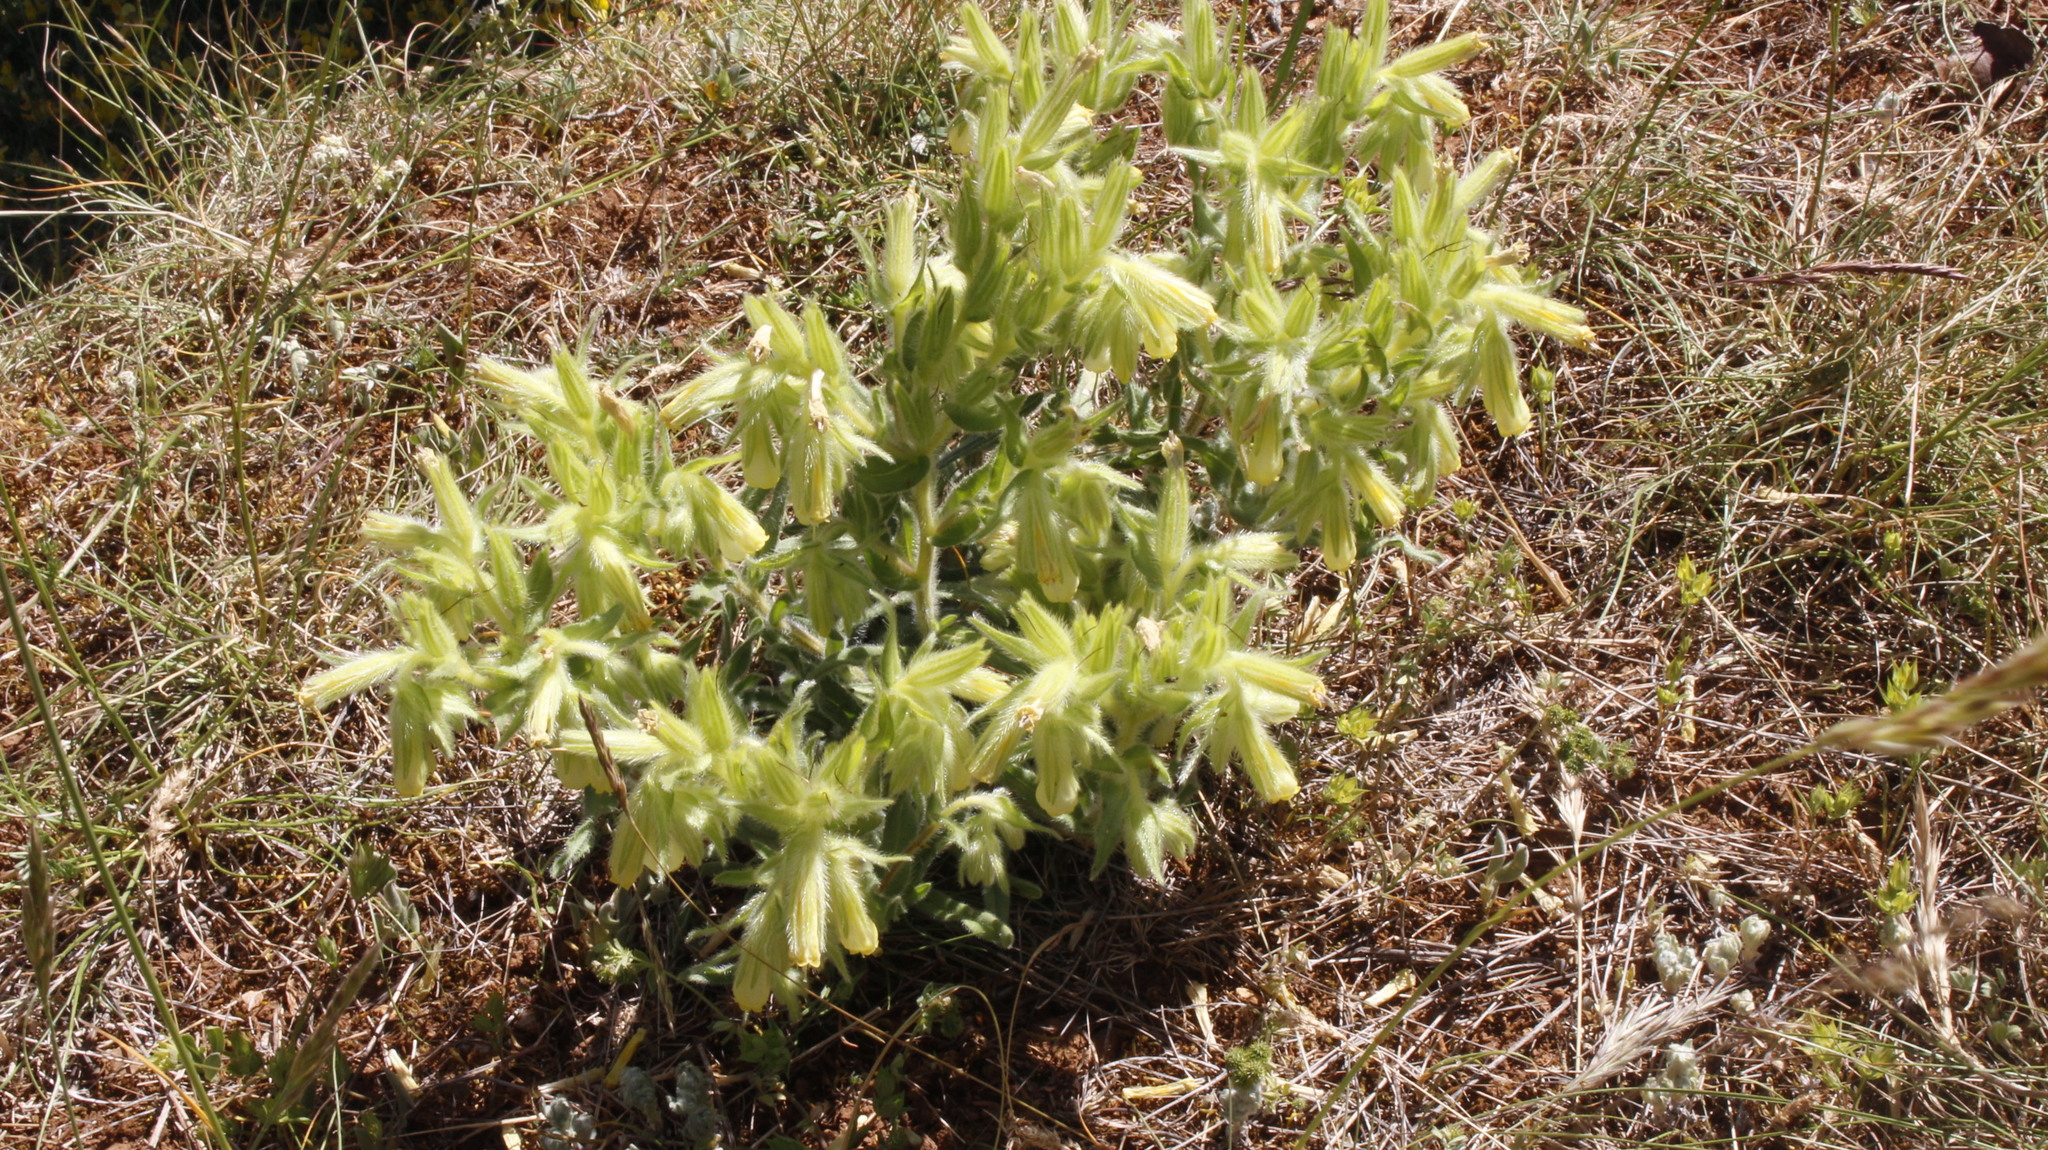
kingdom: Plantae
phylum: Tracheophyta
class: Magnoliopsida
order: Boraginales
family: Boraginaceae
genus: Onosma
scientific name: Onosma tricerosperma
